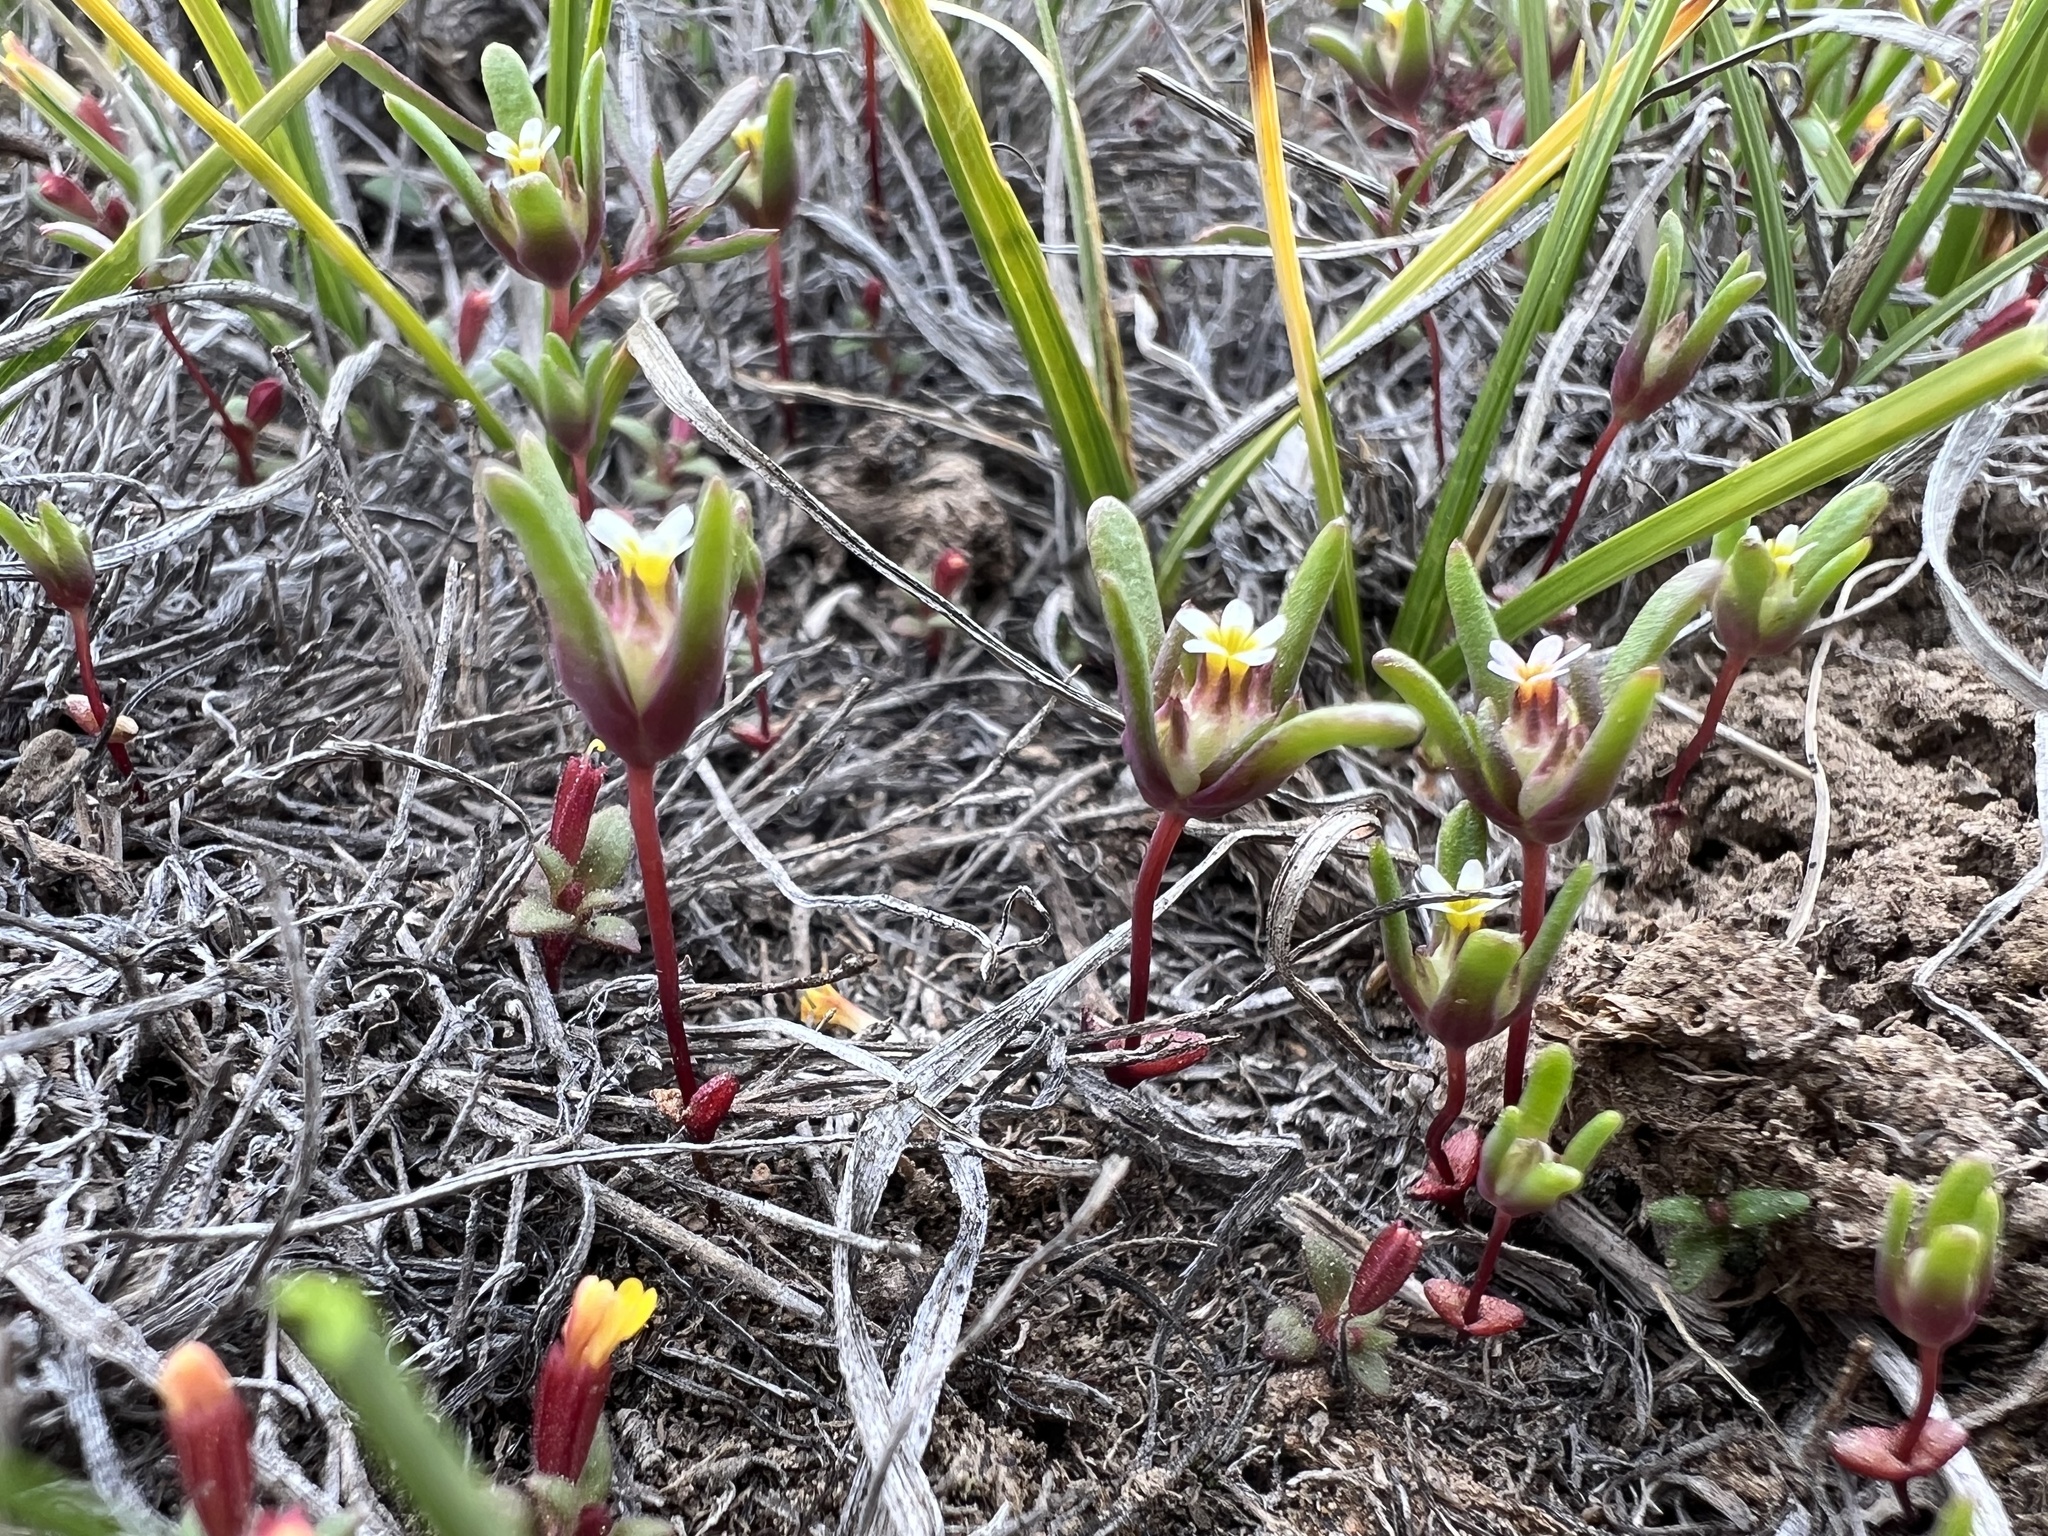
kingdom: Plantae
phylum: Tracheophyta
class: Magnoliopsida
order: Ericales
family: Polemoniaceae
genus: Gymnosteris
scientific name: Gymnosteris parvula
